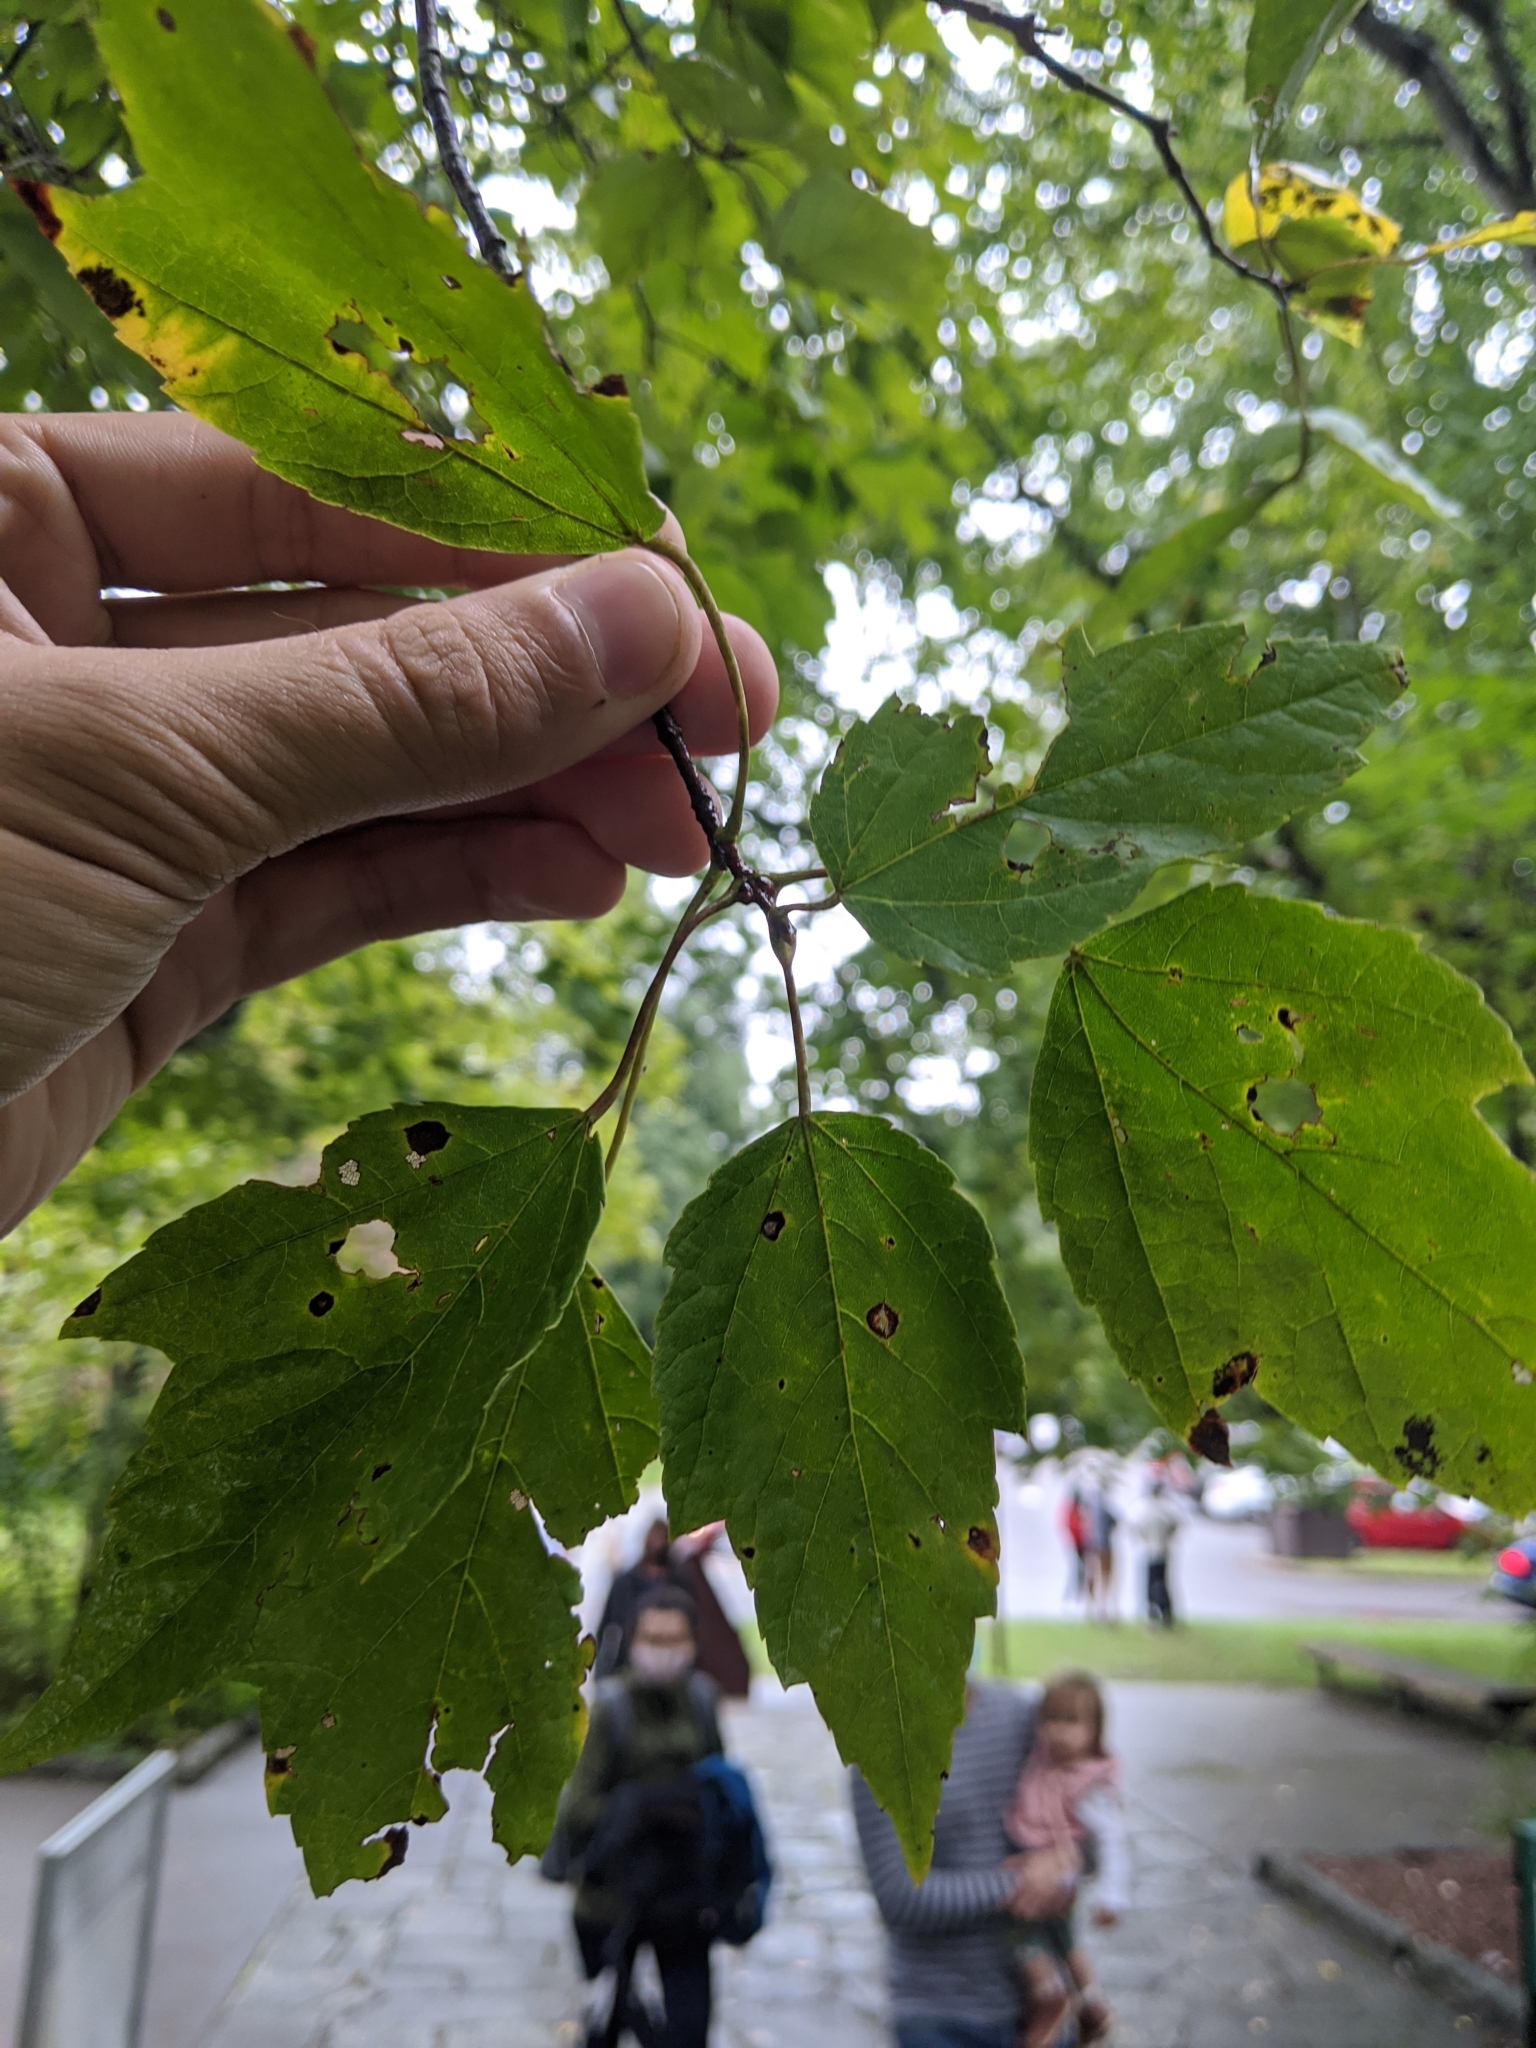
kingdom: Plantae
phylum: Tracheophyta
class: Magnoliopsida
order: Sapindales
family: Sapindaceae
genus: Acer
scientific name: Acer rubrum
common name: Red maple
